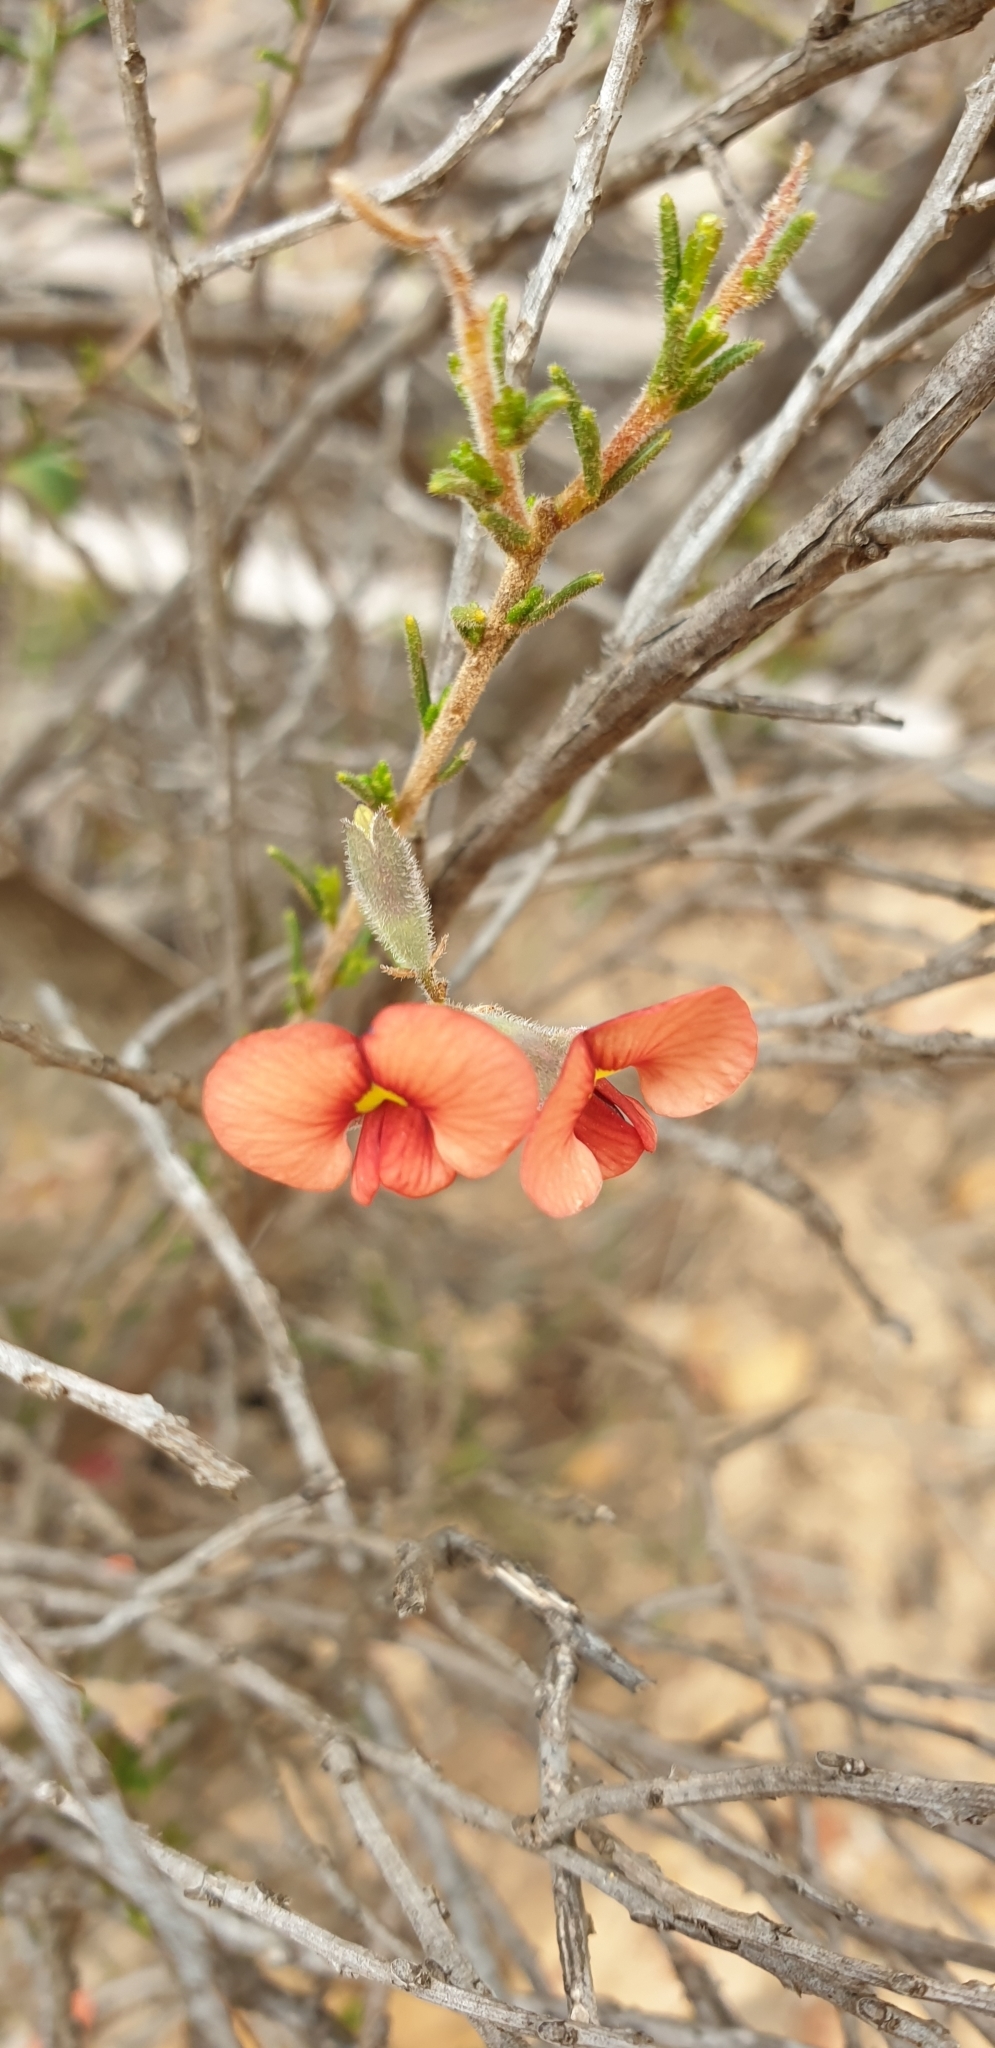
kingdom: Plantae
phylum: Tracheophyta
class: Magnoliopsida
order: Fabales
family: Fabaceae
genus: Dillwynia
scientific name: Dillwynia sericea
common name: Showy parrot-pea
